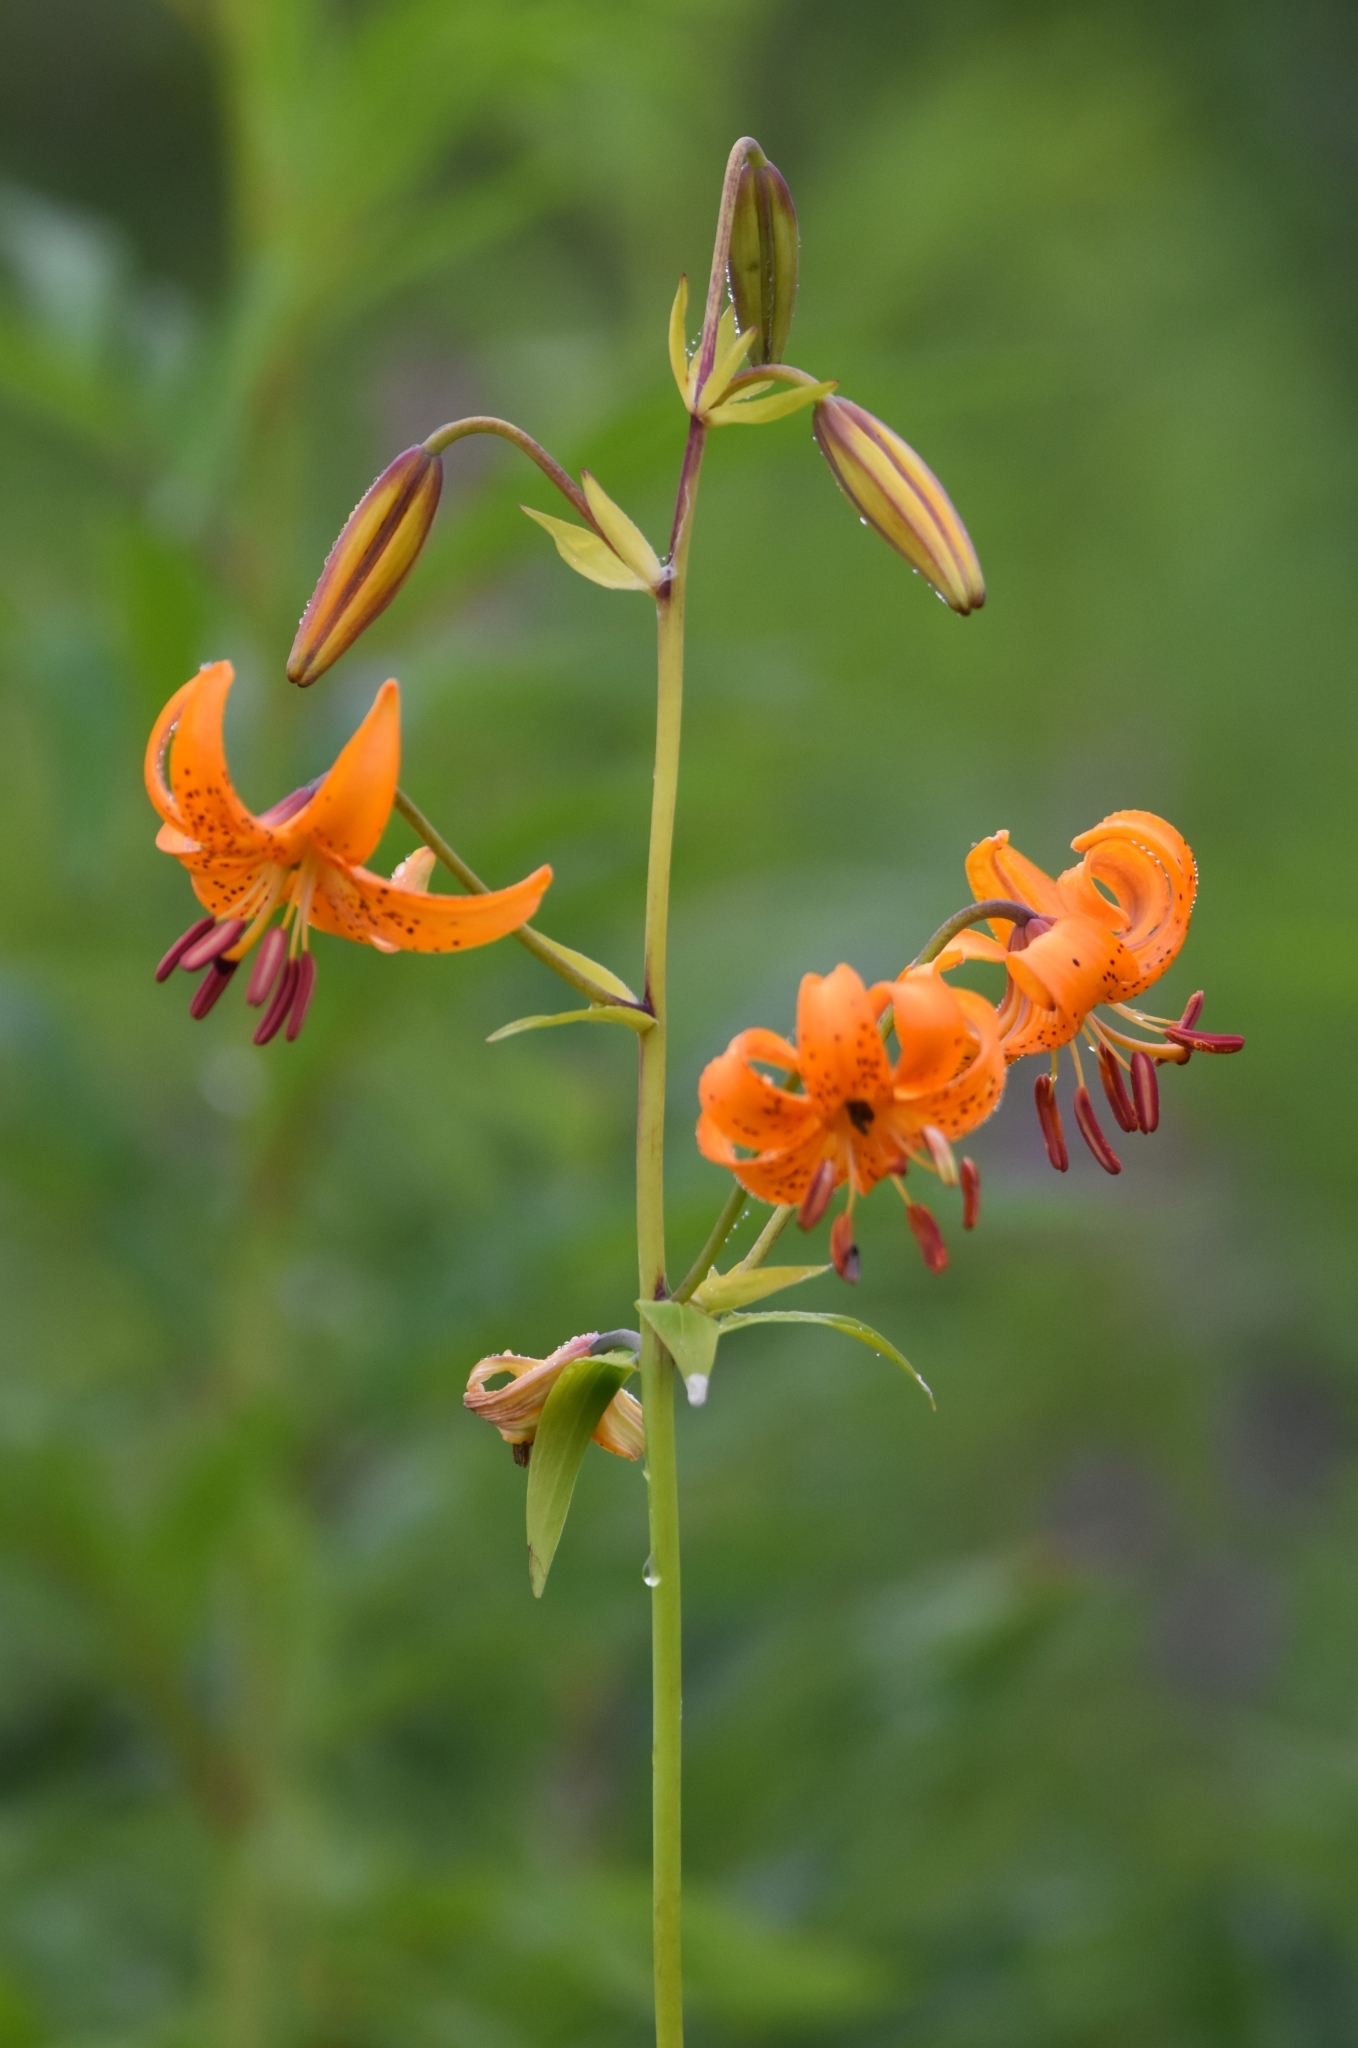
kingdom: Plantae
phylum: Tracheophyta
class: Liliopsida
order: Liliales
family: Liliaceae
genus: Lilium
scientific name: Lilium debile
